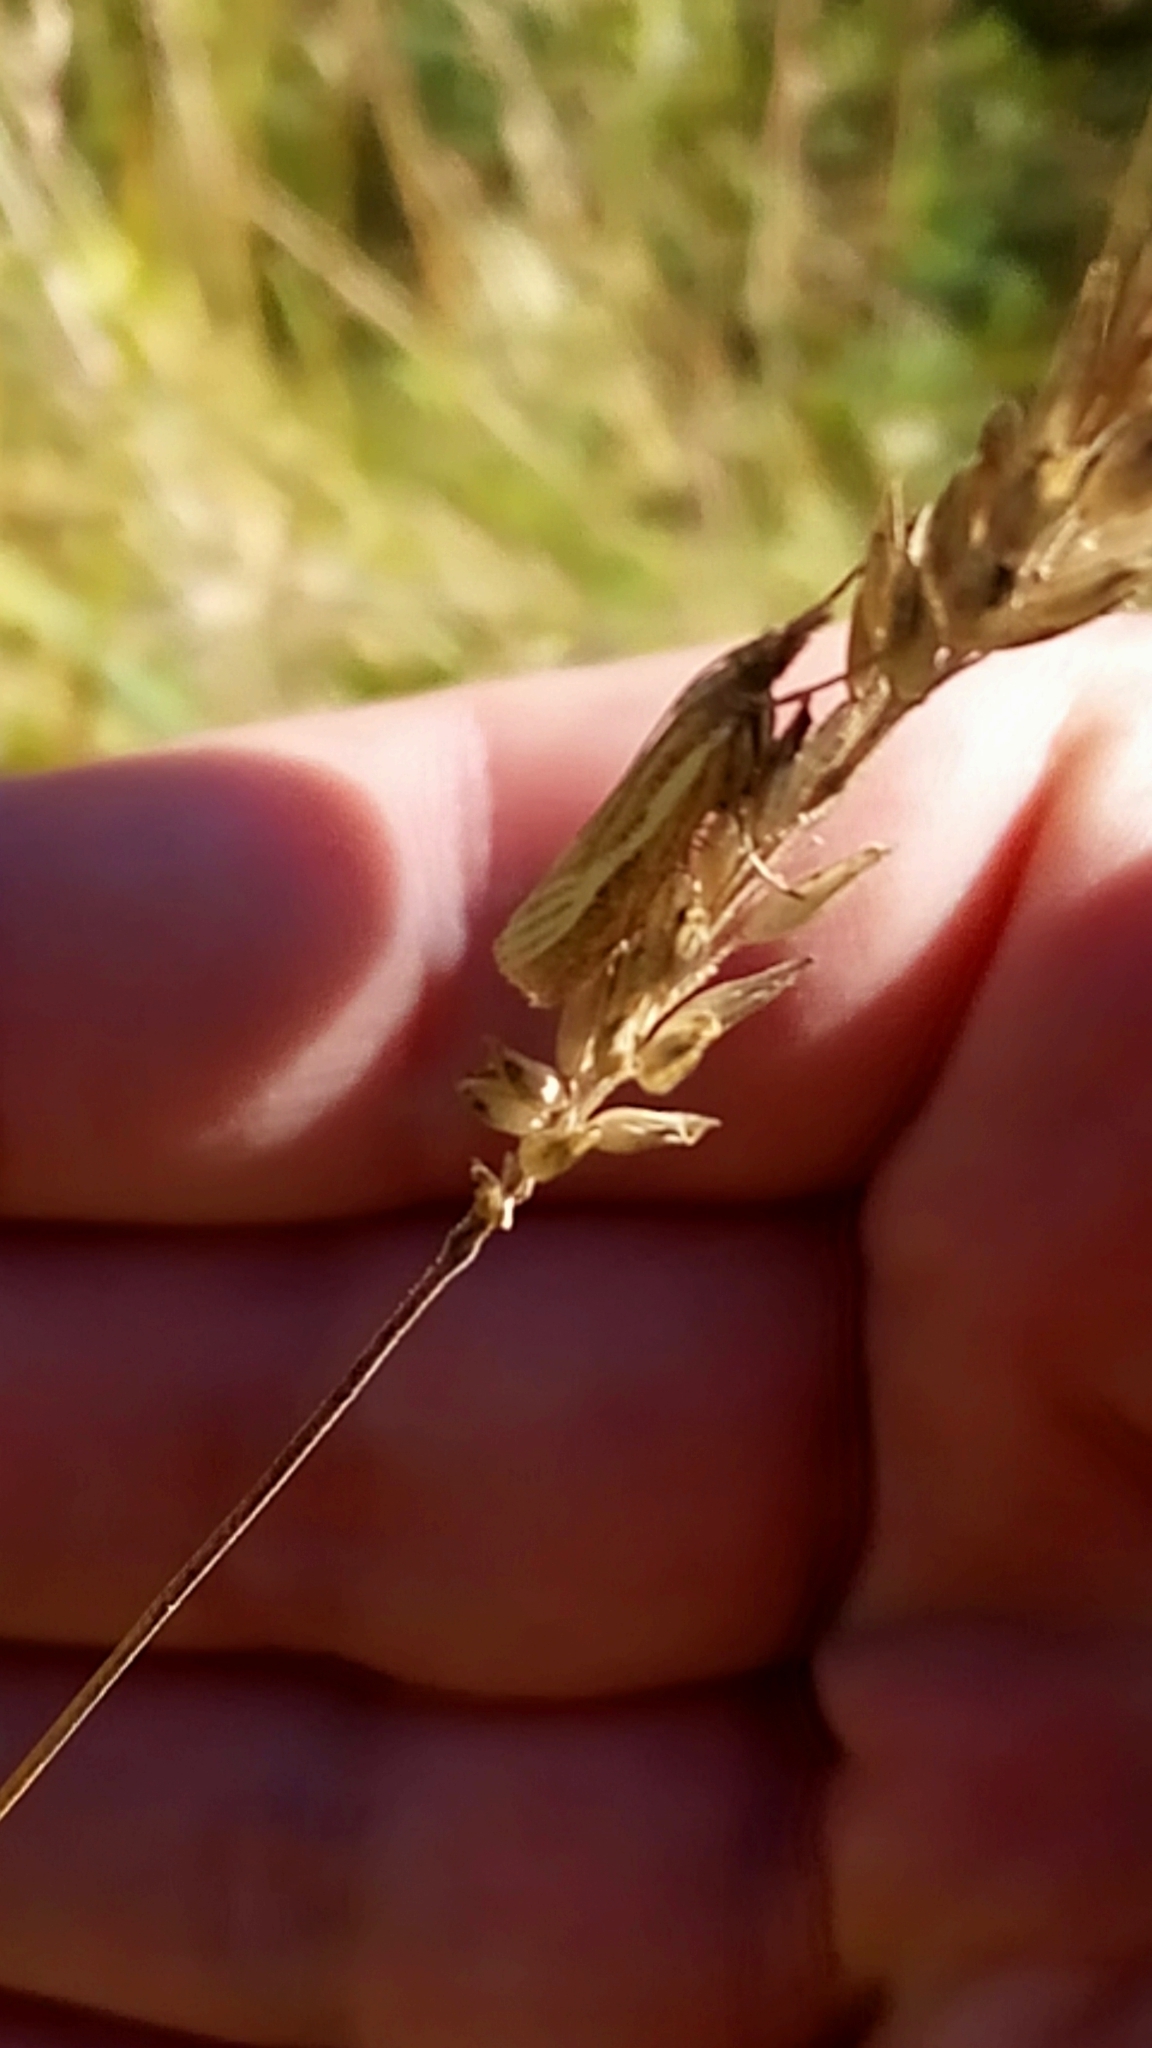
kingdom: Animalia
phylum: Arthropoda
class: Insecta
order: Lepidoptera
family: Crambidae
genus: Agriphila
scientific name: Agriphila tristellus
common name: Common grass-veneer
